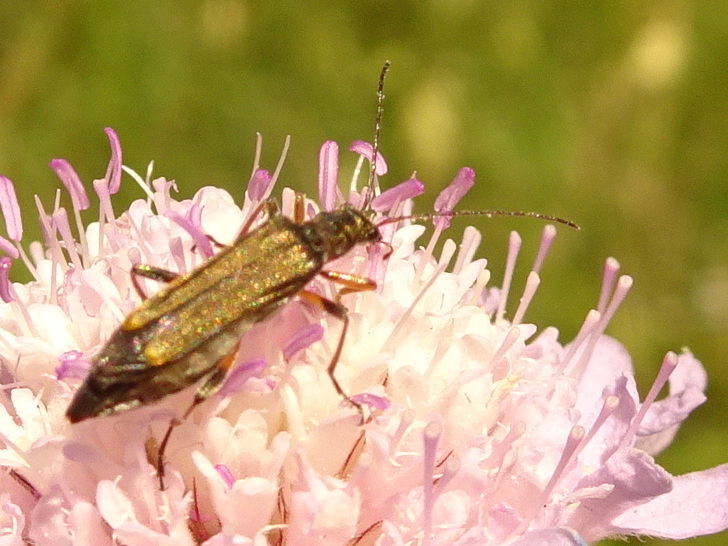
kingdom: Animalia
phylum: Arthropoda
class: Insecta
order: Coleoptera
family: Oedemeridae
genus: Oedemera
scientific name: Oedemera barbara
